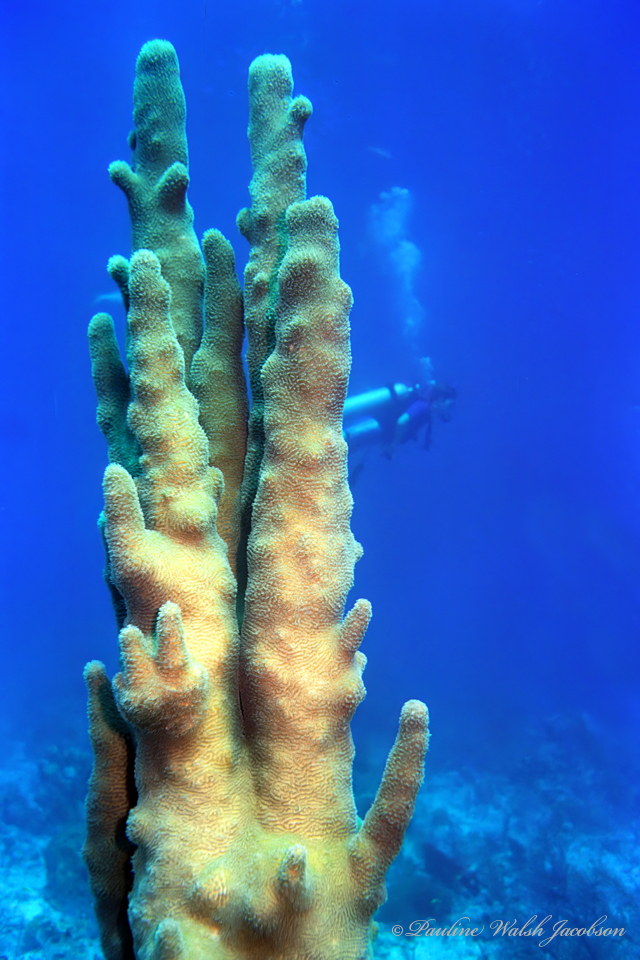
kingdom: Animalia
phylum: Cnidaria
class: Anthozoa
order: Scleractinia
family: Meandrinidae
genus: Dendrogyra
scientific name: Dendrogyra cylindrus
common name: Pillar coral
